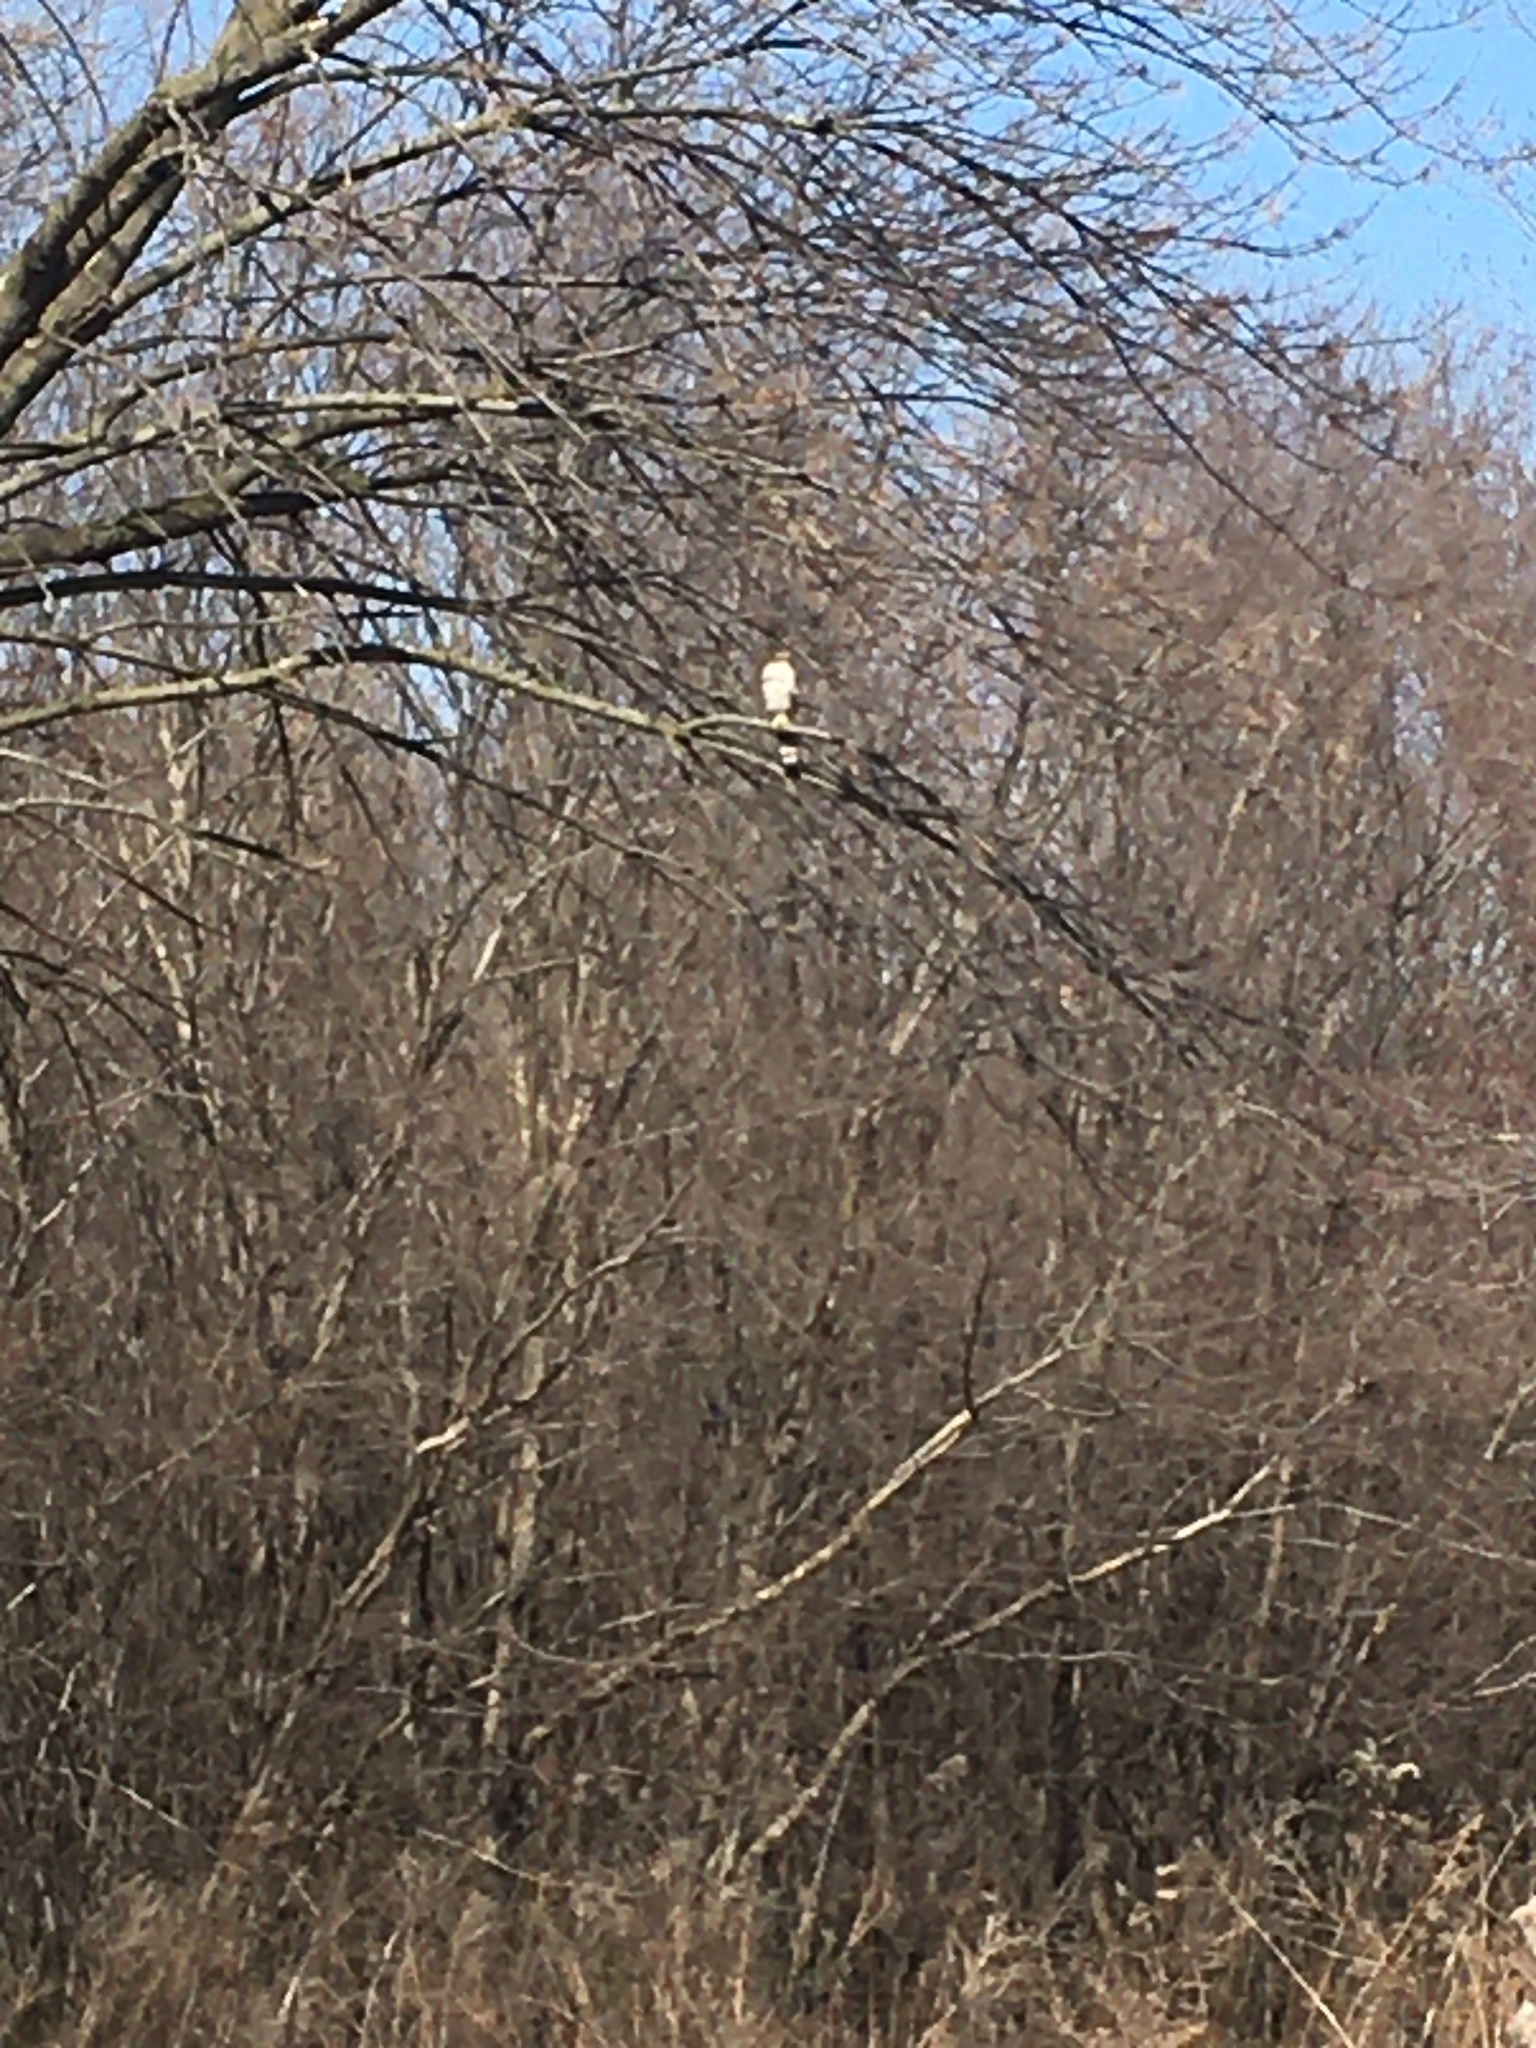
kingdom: Animalia
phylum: Chordata
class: Aves
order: Accipitriformes
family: Accipitridae
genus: Accipiter
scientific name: Accipiter cooperii
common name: Cooper's hawk
